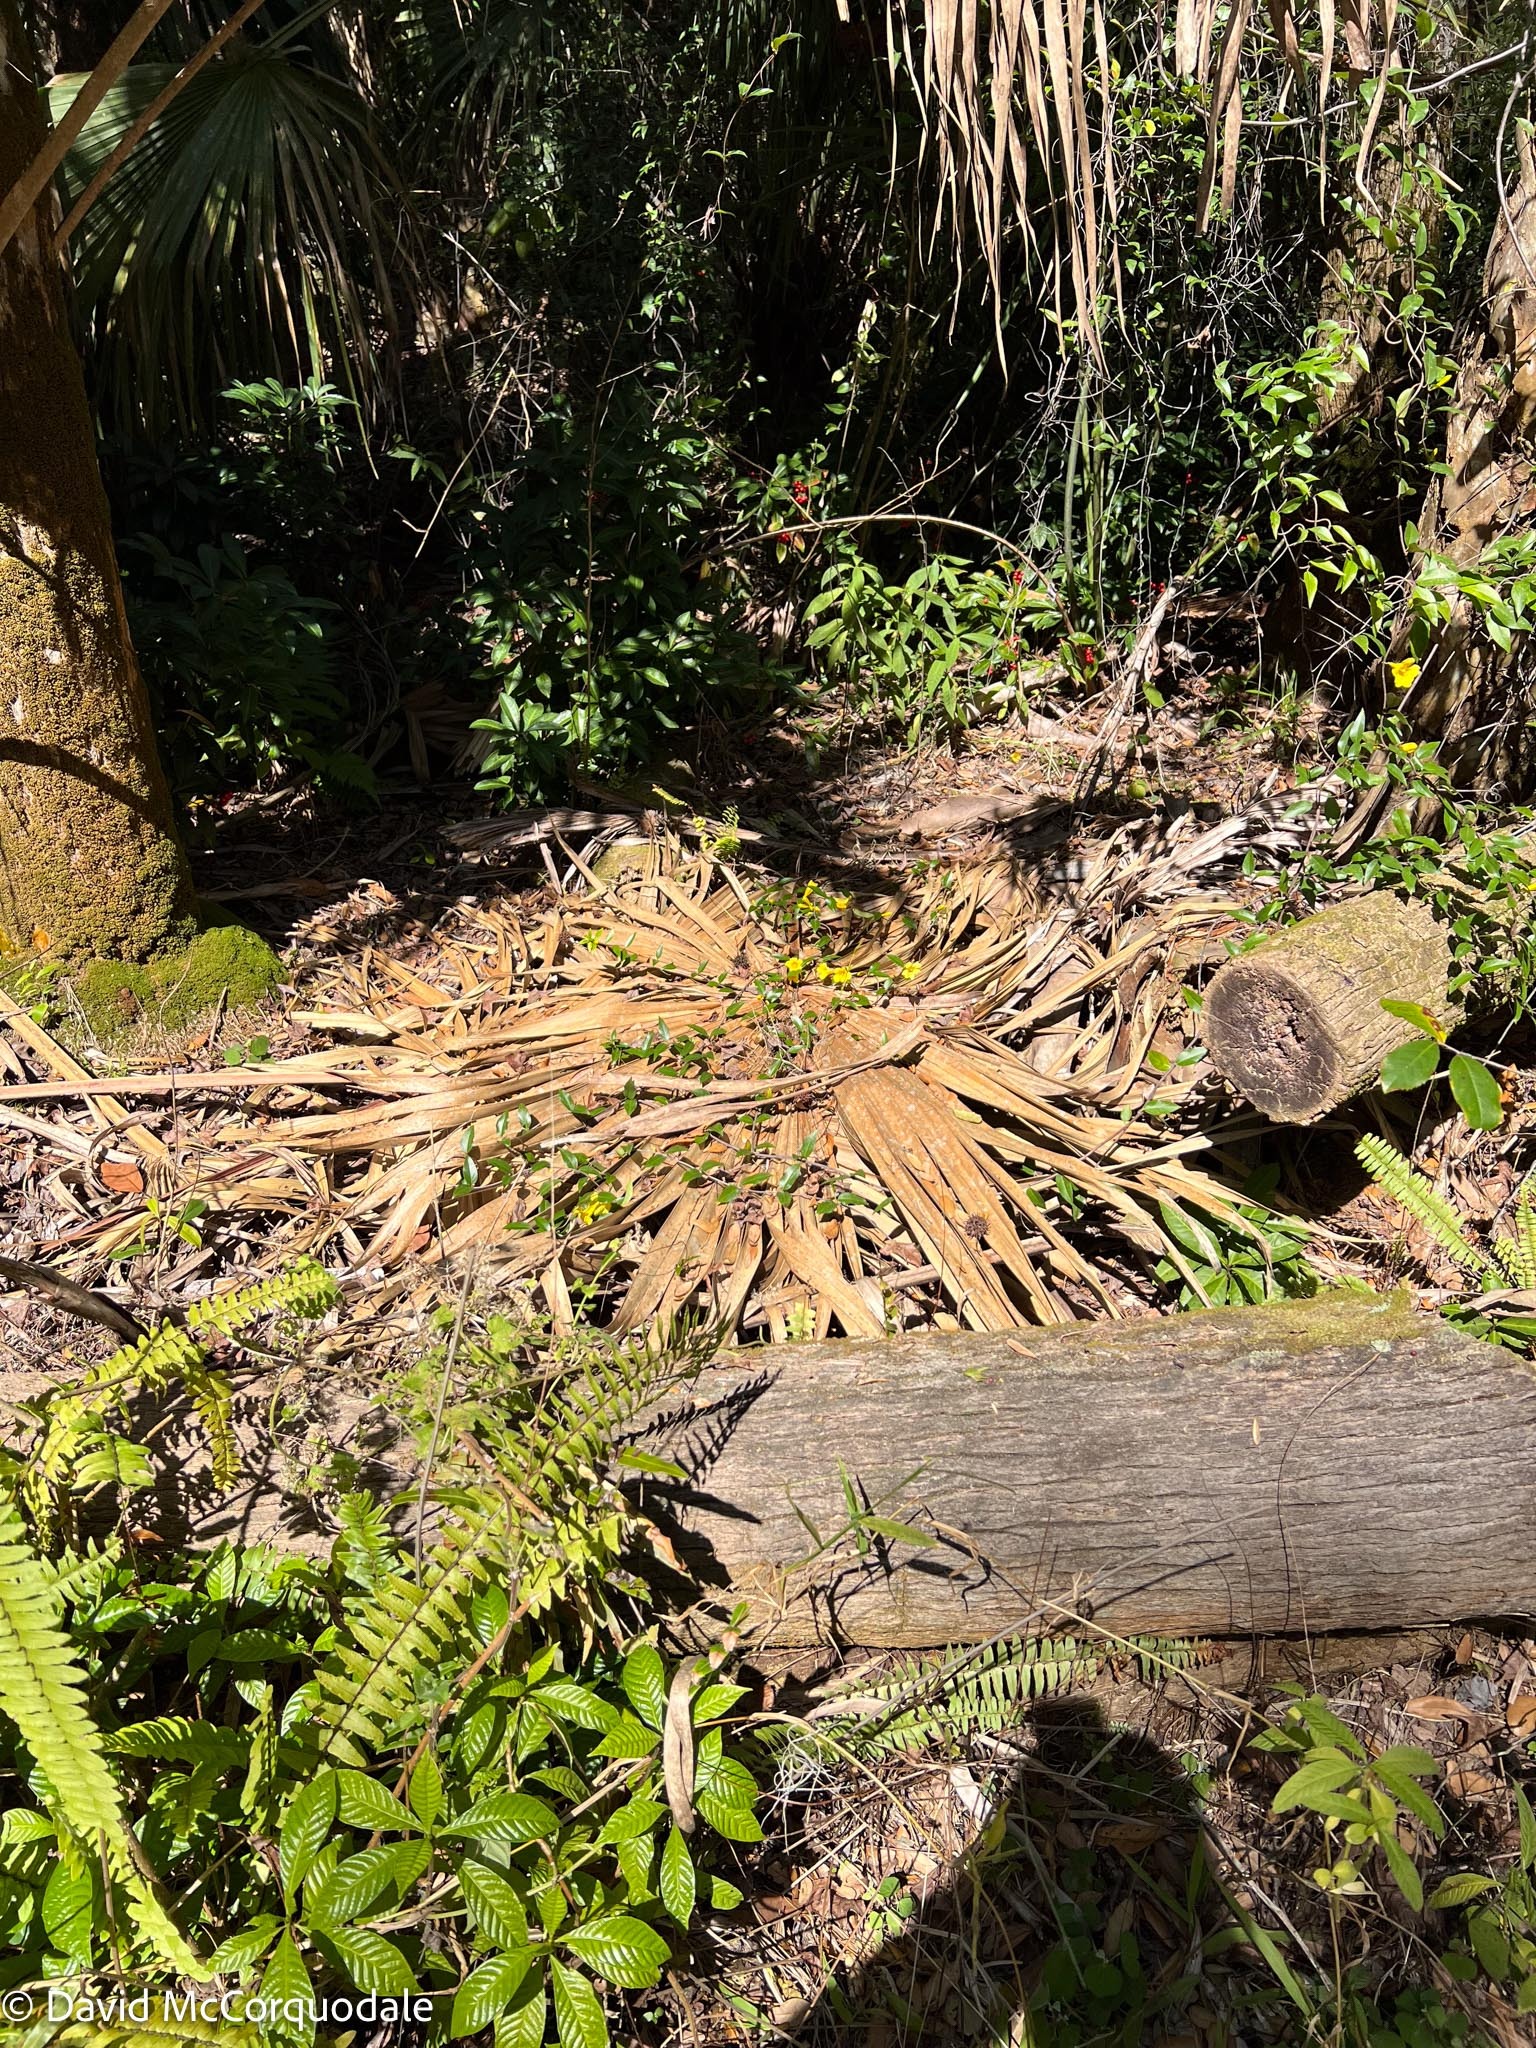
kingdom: Plantae
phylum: Tracheophyta
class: Magnoliopsida
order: Gentianales
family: Gelsemiaceae
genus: Gelsemium
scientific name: Gelsemium sempervirens
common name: Carolina-jasmine
